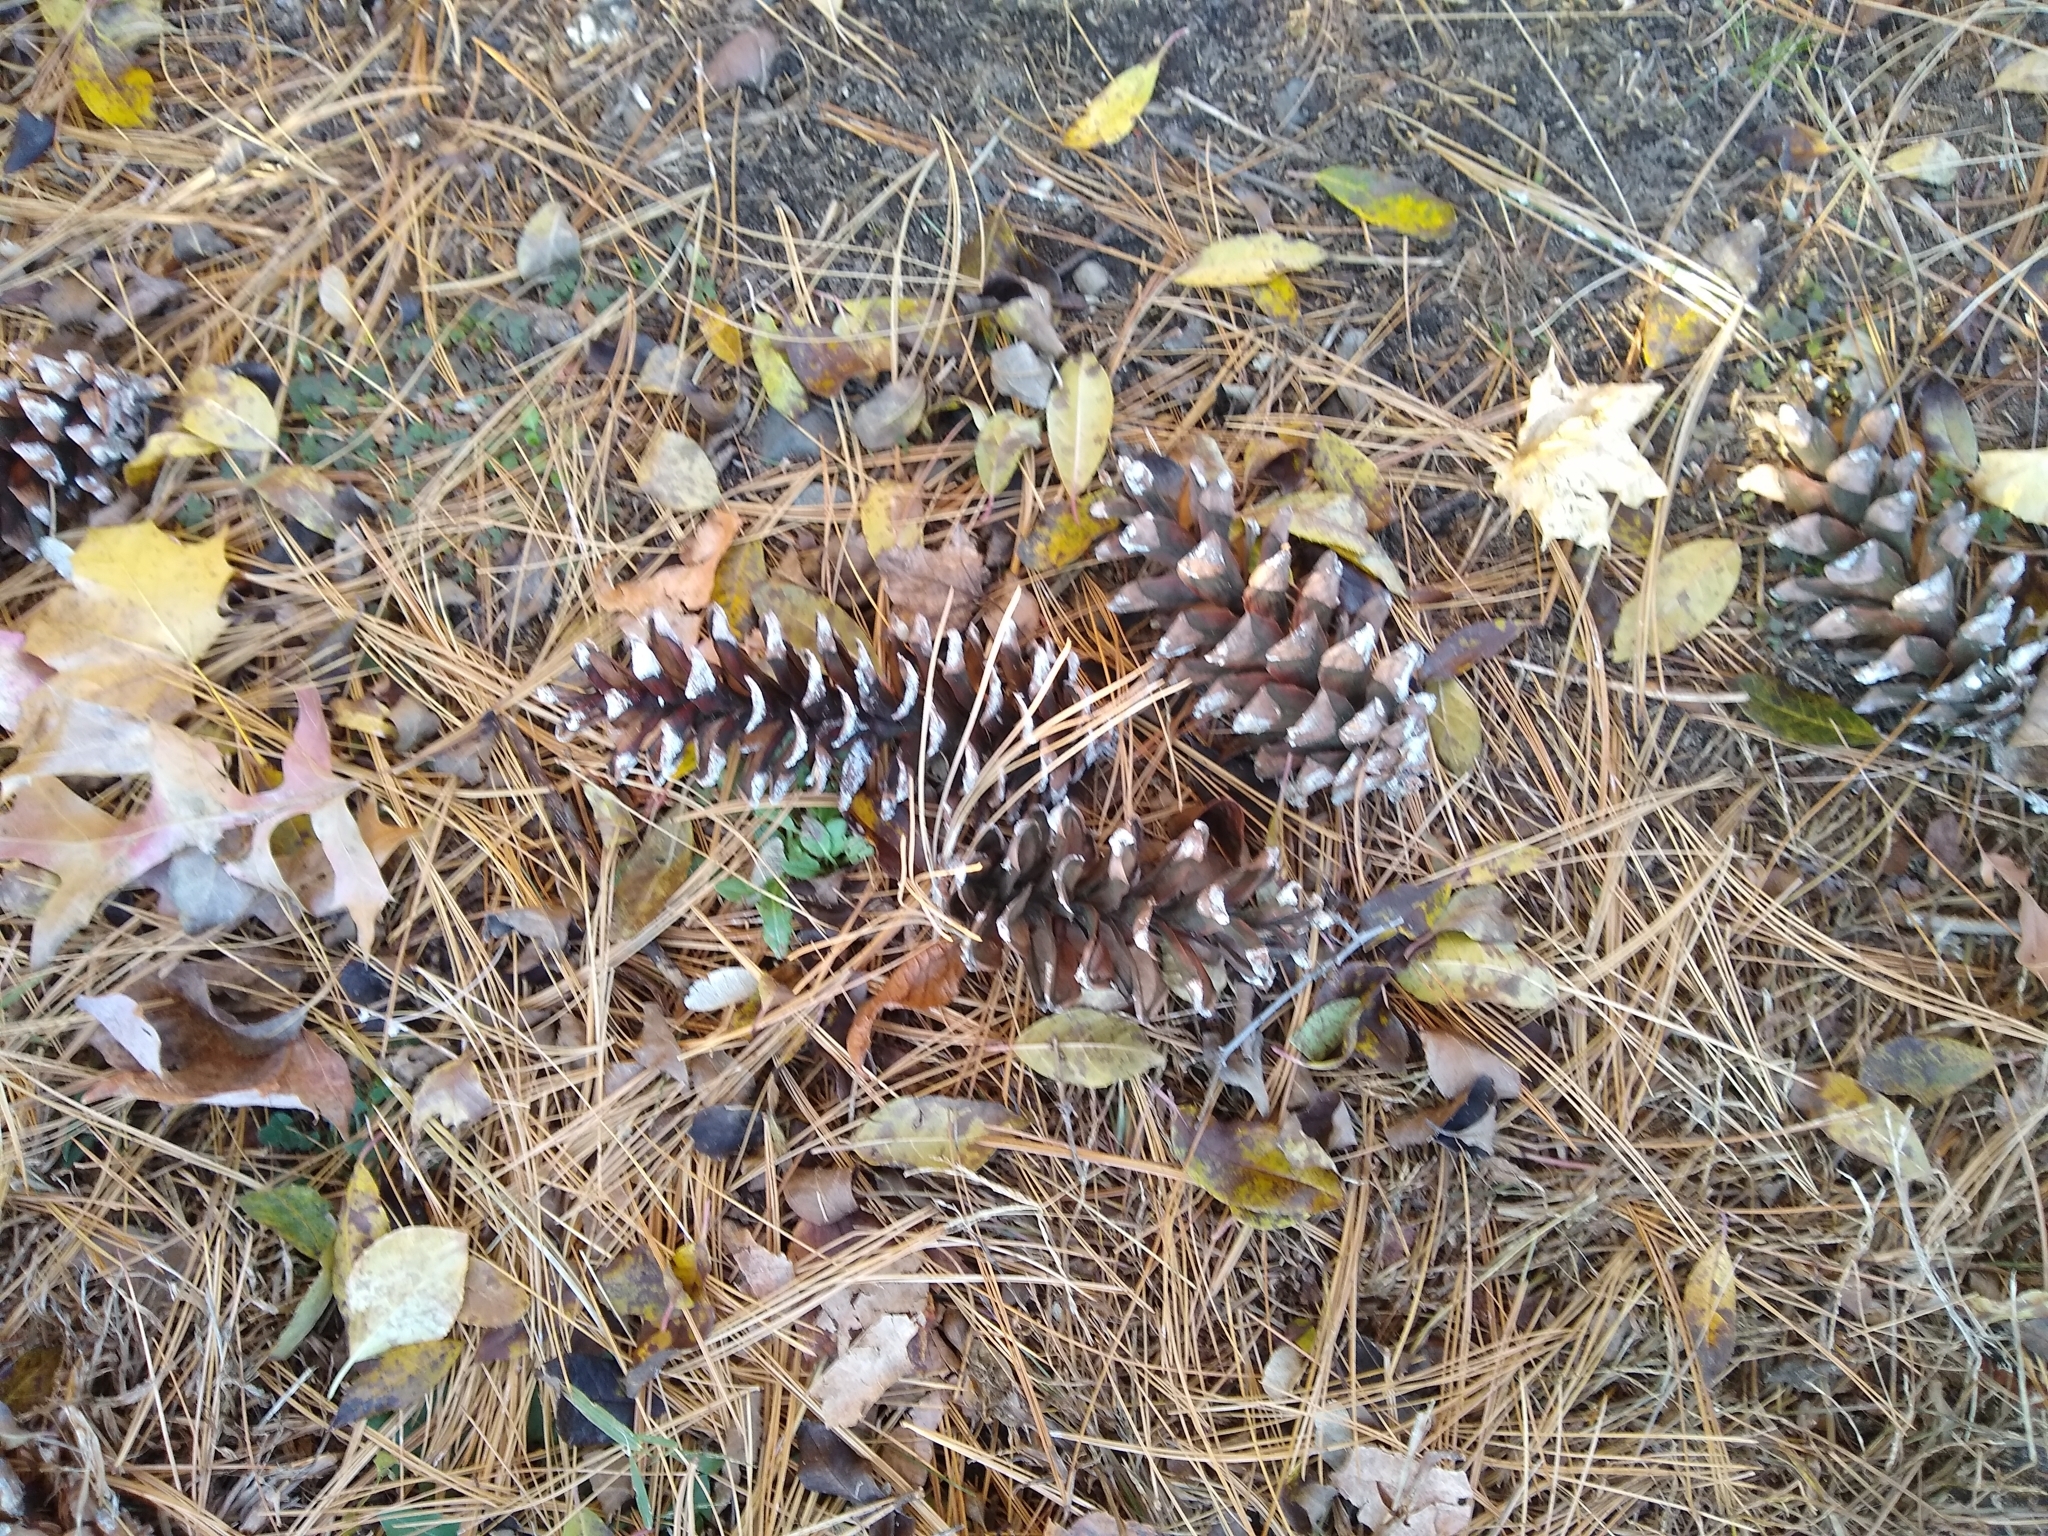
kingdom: Plantae
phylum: Tracheophyta
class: Pinopsida
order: Pinales
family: Pinaceae
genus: Pinus
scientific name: Pinus strobus
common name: Weymouth pine
